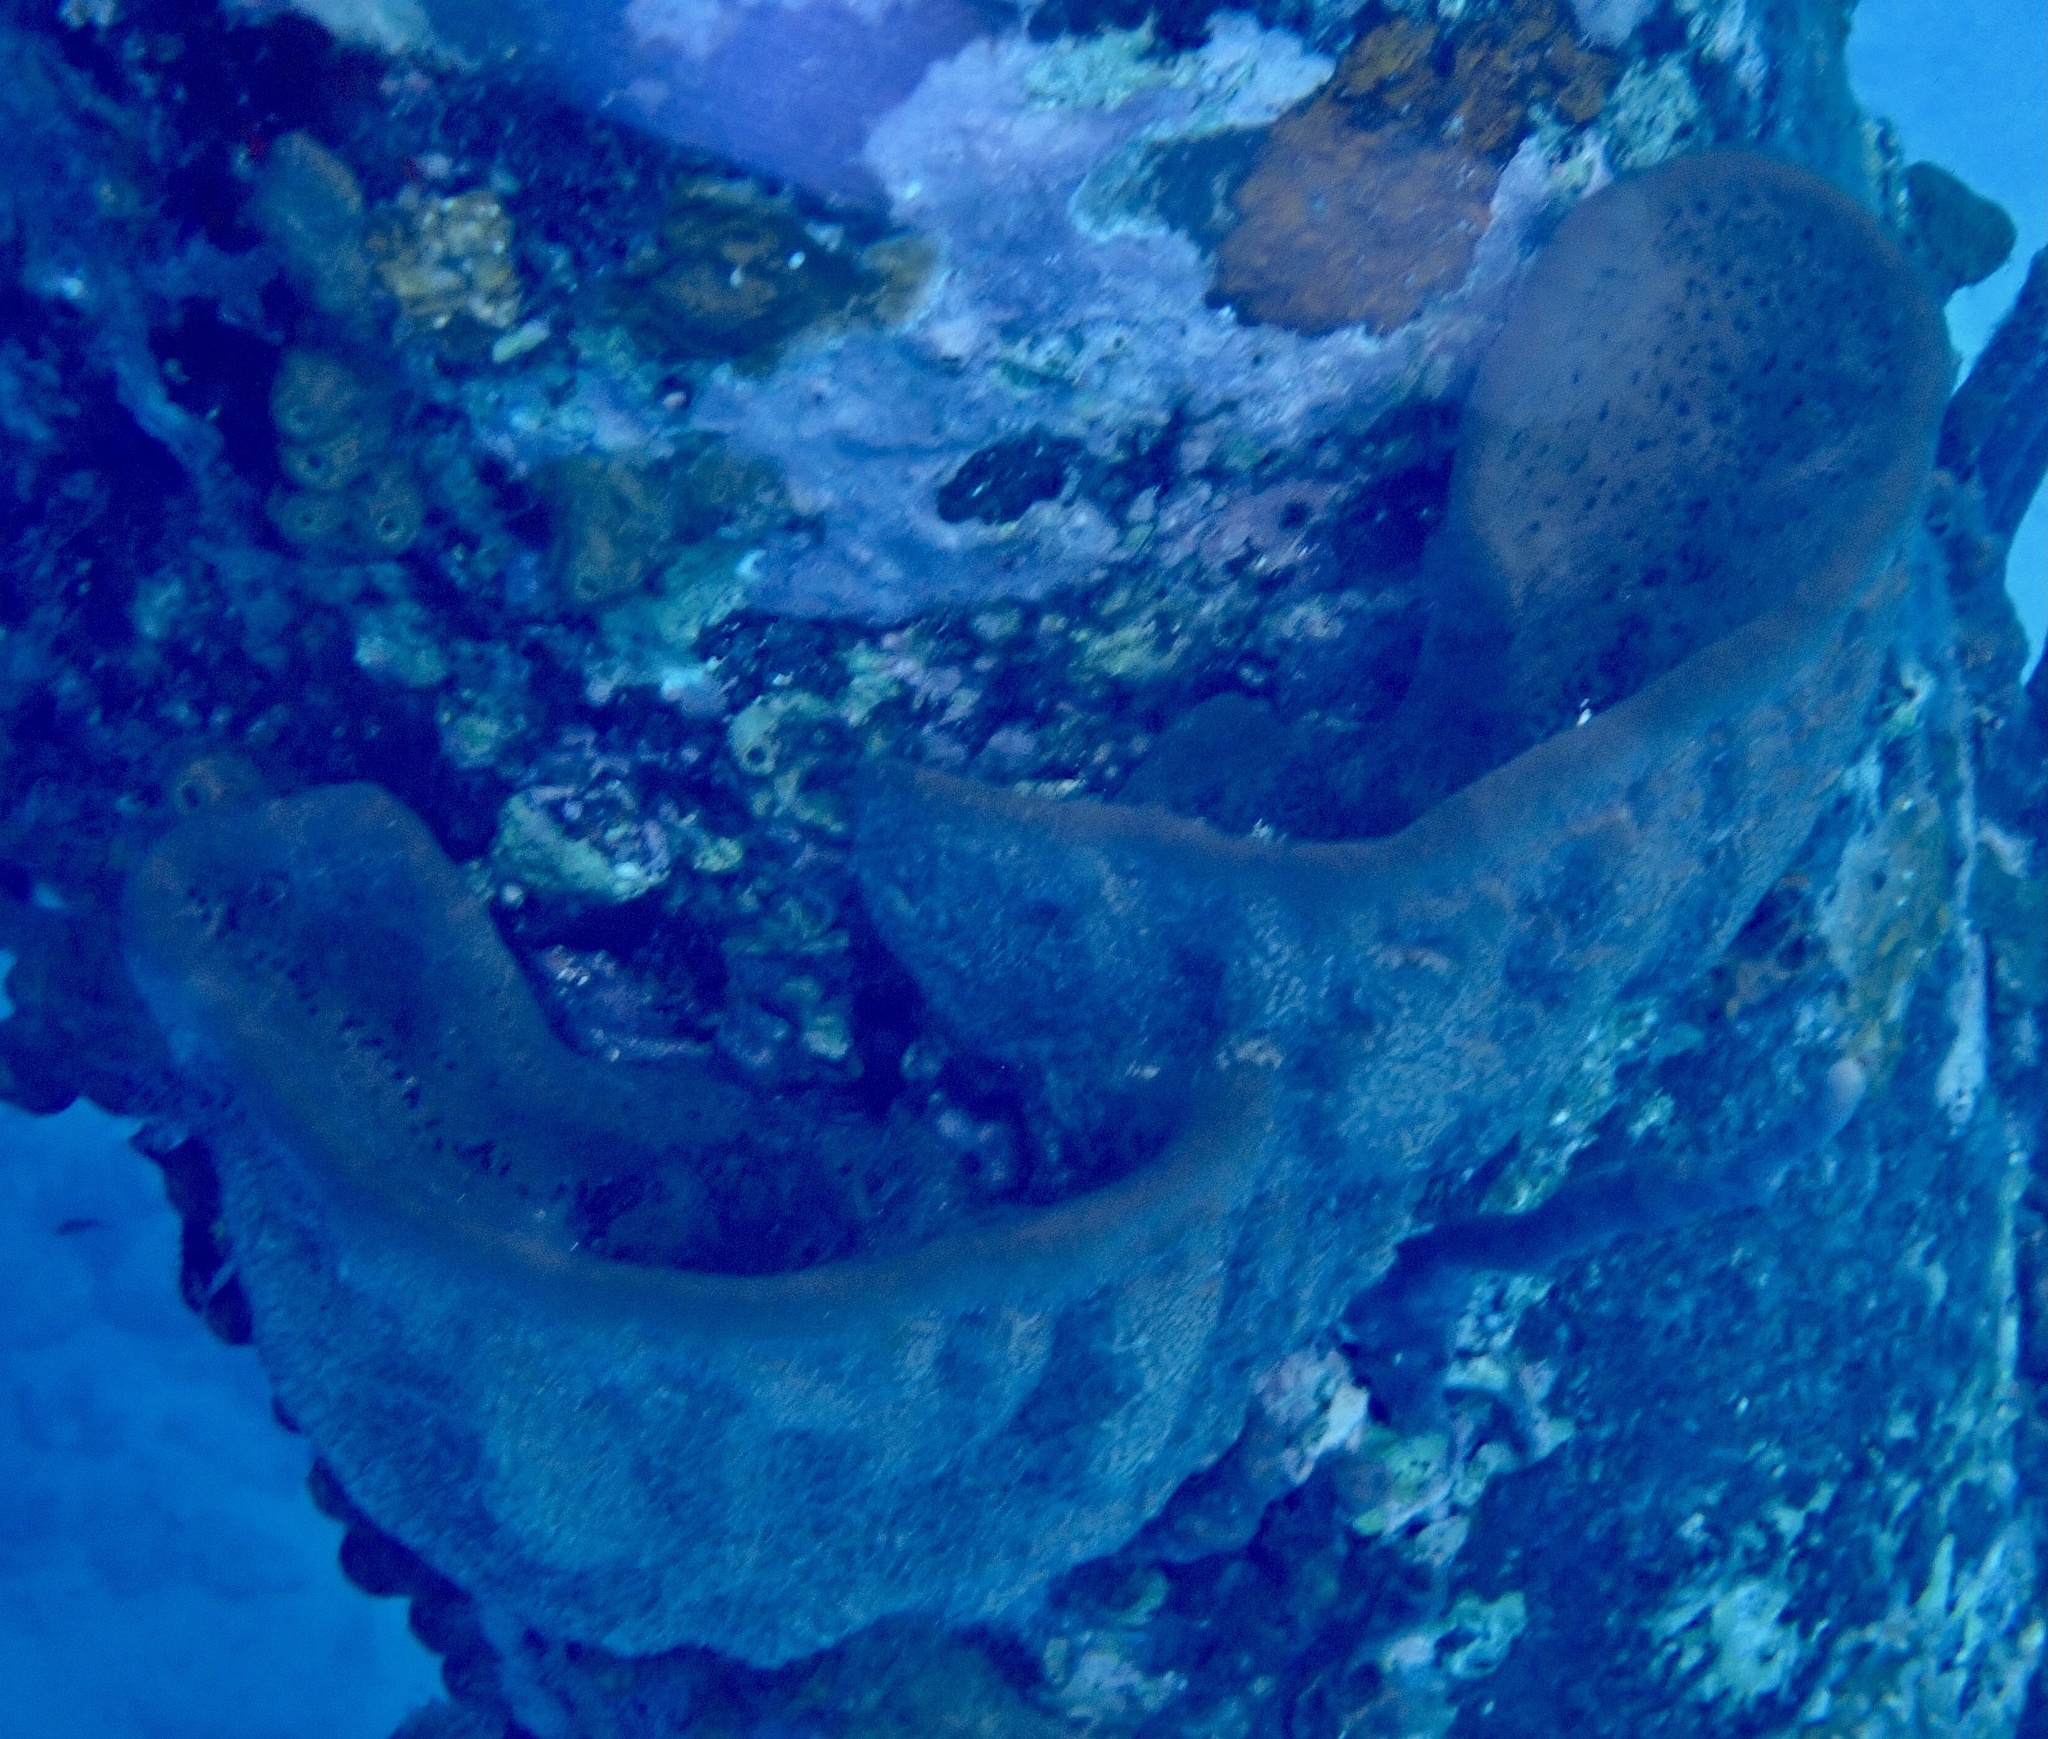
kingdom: Animalia
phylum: Porifera
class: Demospongiae
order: Dictyoceratida
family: Irciniidae
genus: Ircinia
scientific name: Ircinia campana
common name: Vase sponge
